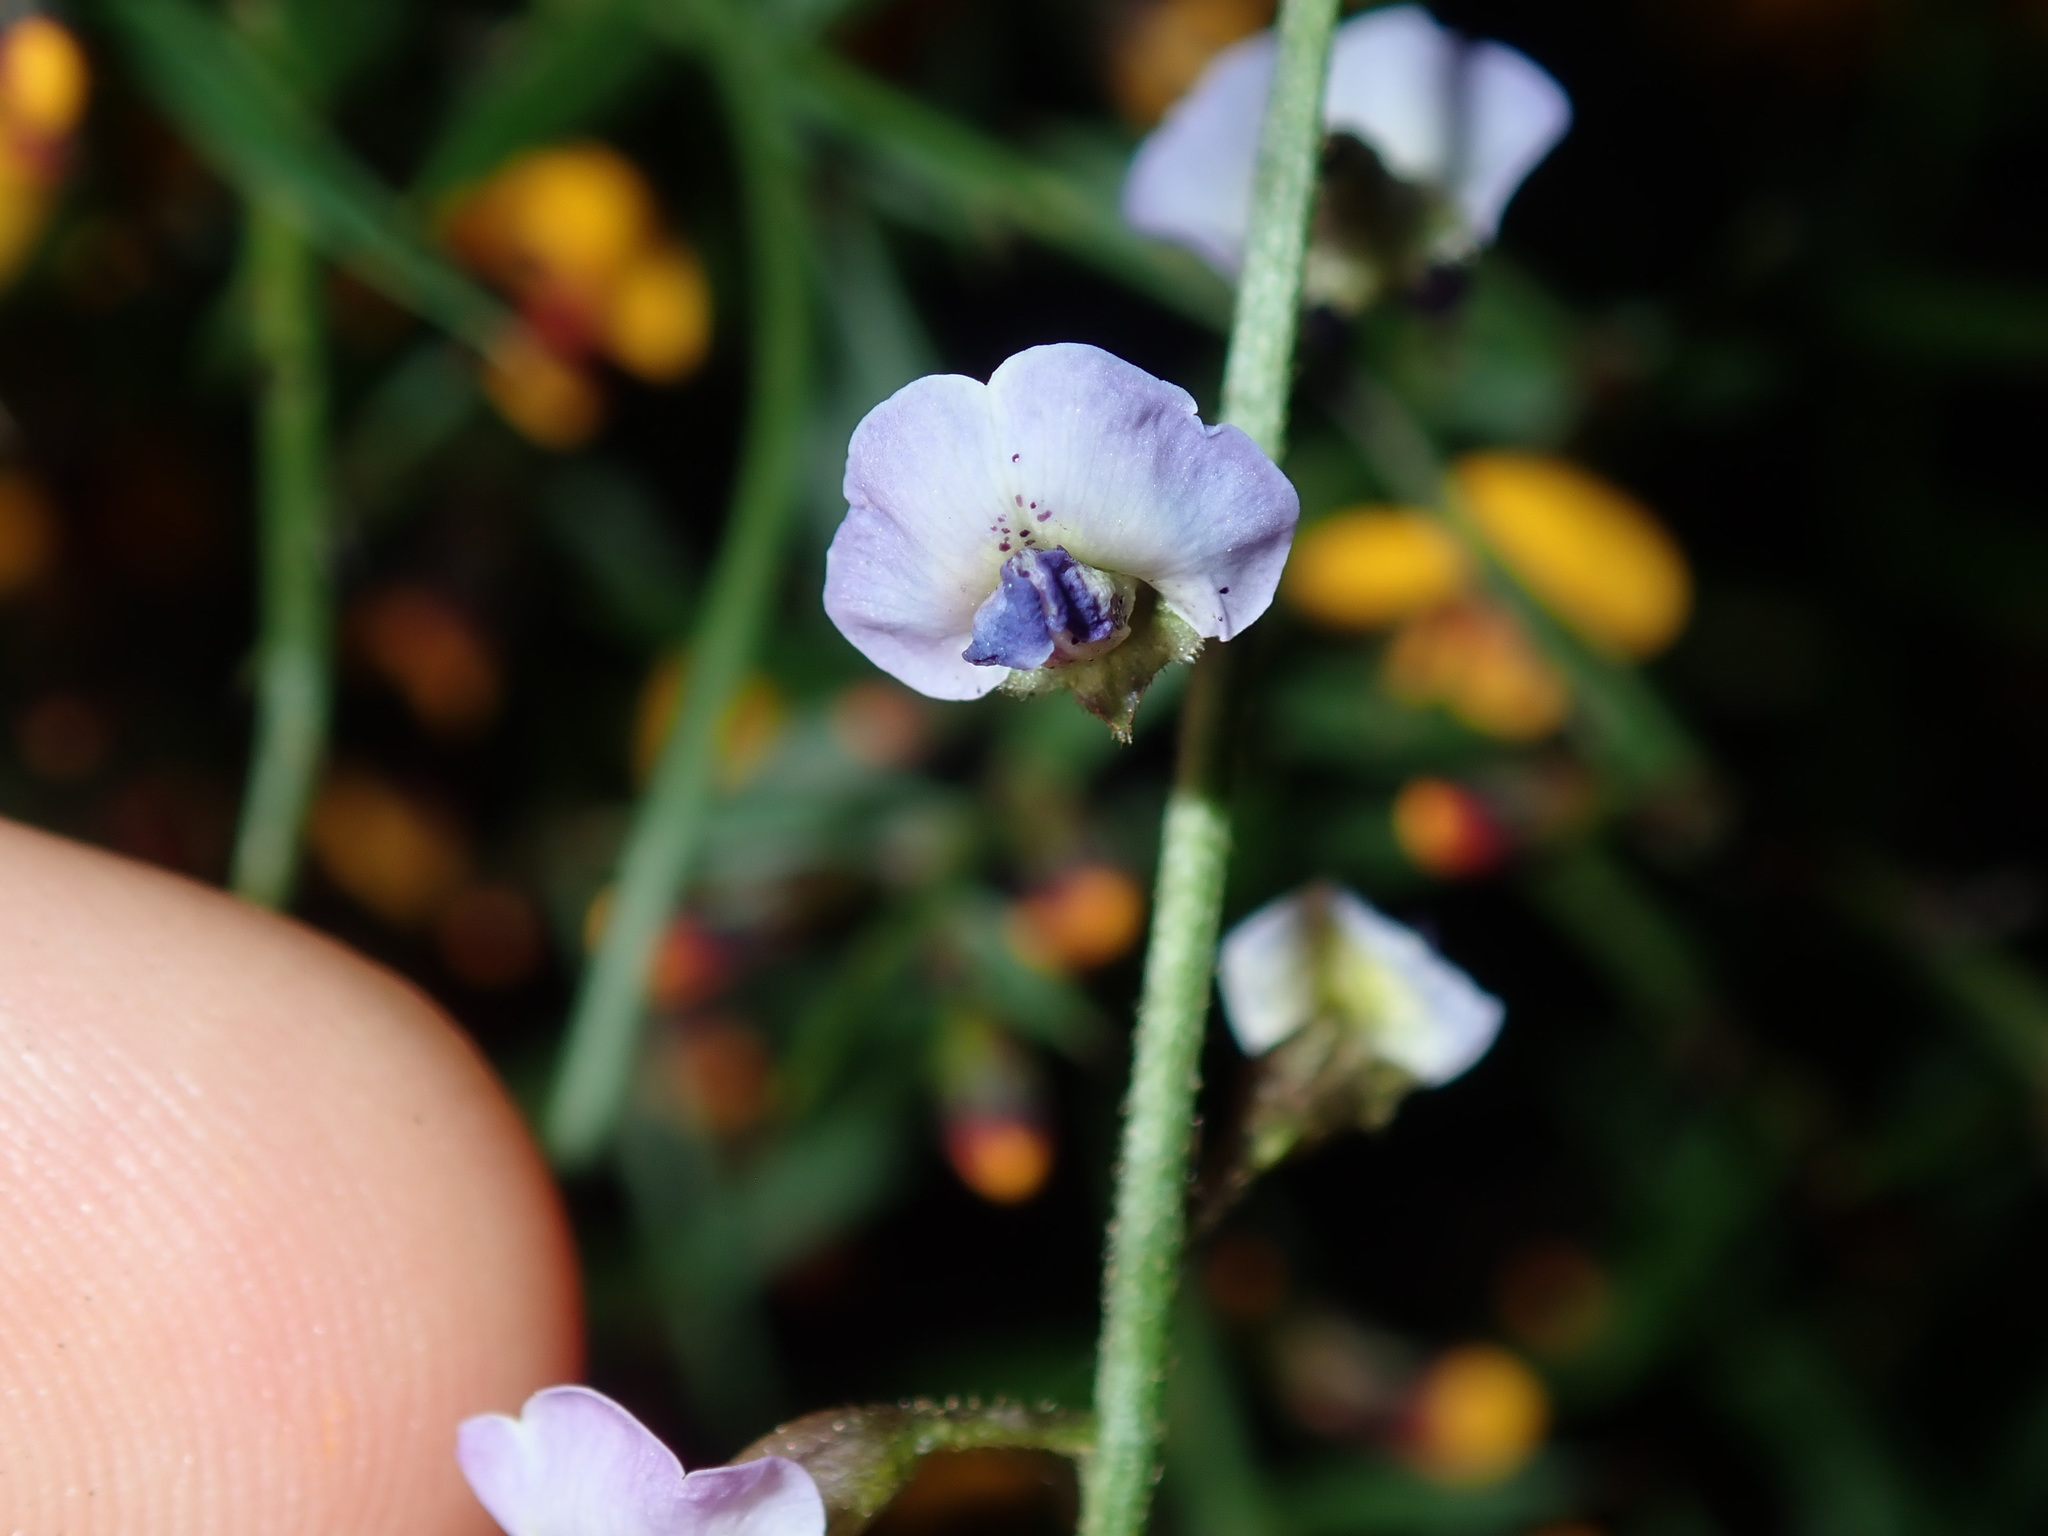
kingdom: Plantae
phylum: Tracheophyta
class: Magnoliopsida
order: Fabales
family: Fabaceae
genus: Glycine
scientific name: Glycine clandestina
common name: Twining glycine
